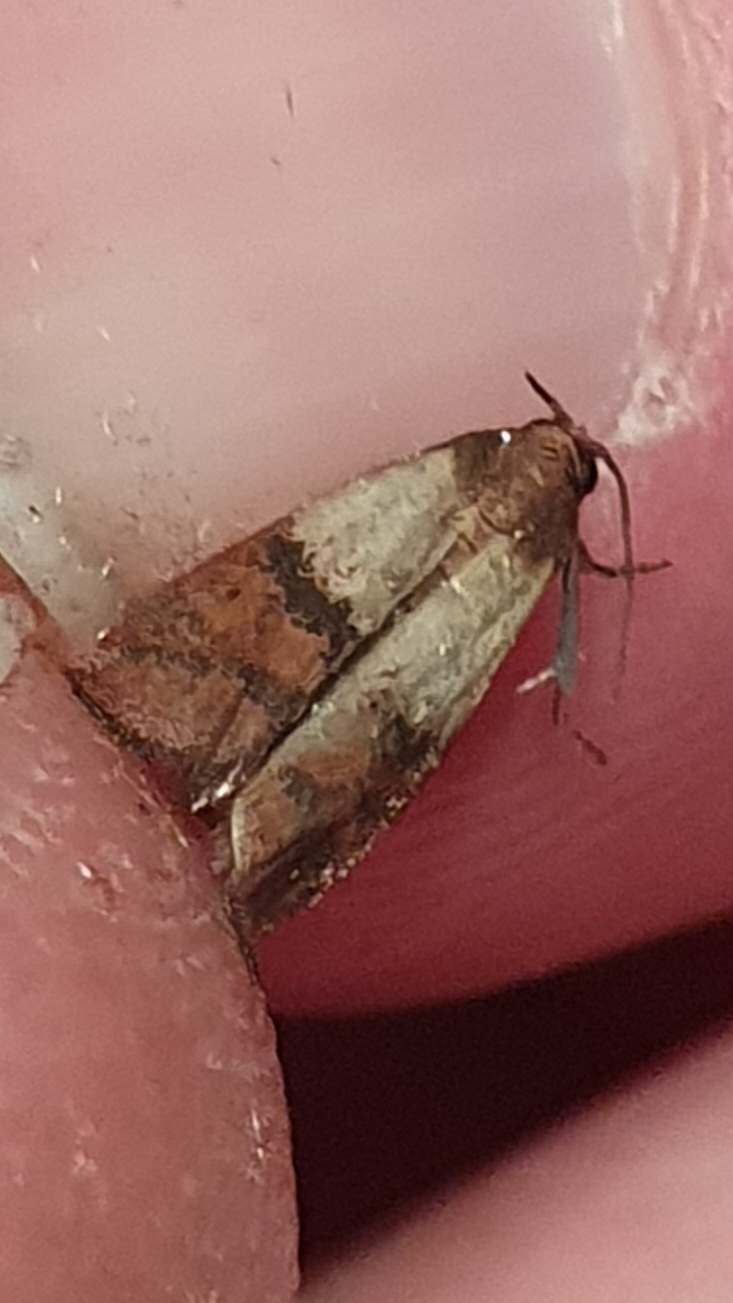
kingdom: Animalia
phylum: Arthropoda
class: Insecta
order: Lepidoptera
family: Pyralidae
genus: Plodia
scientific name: Plodia interpunctella
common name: Indian meal moth
